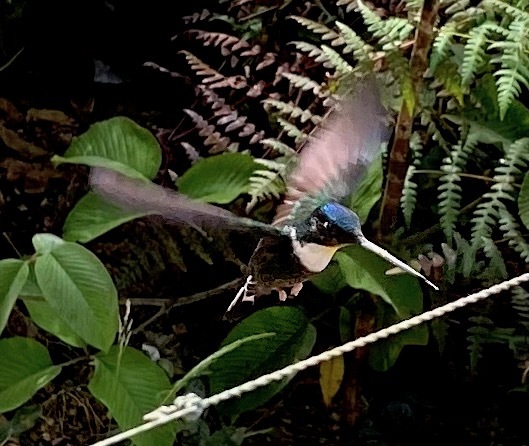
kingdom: Animalia
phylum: Chordata
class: Aves
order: Apodiformes
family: Trochilidae
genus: Coeligena
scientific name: Coeligena torquata
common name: Collared inca
